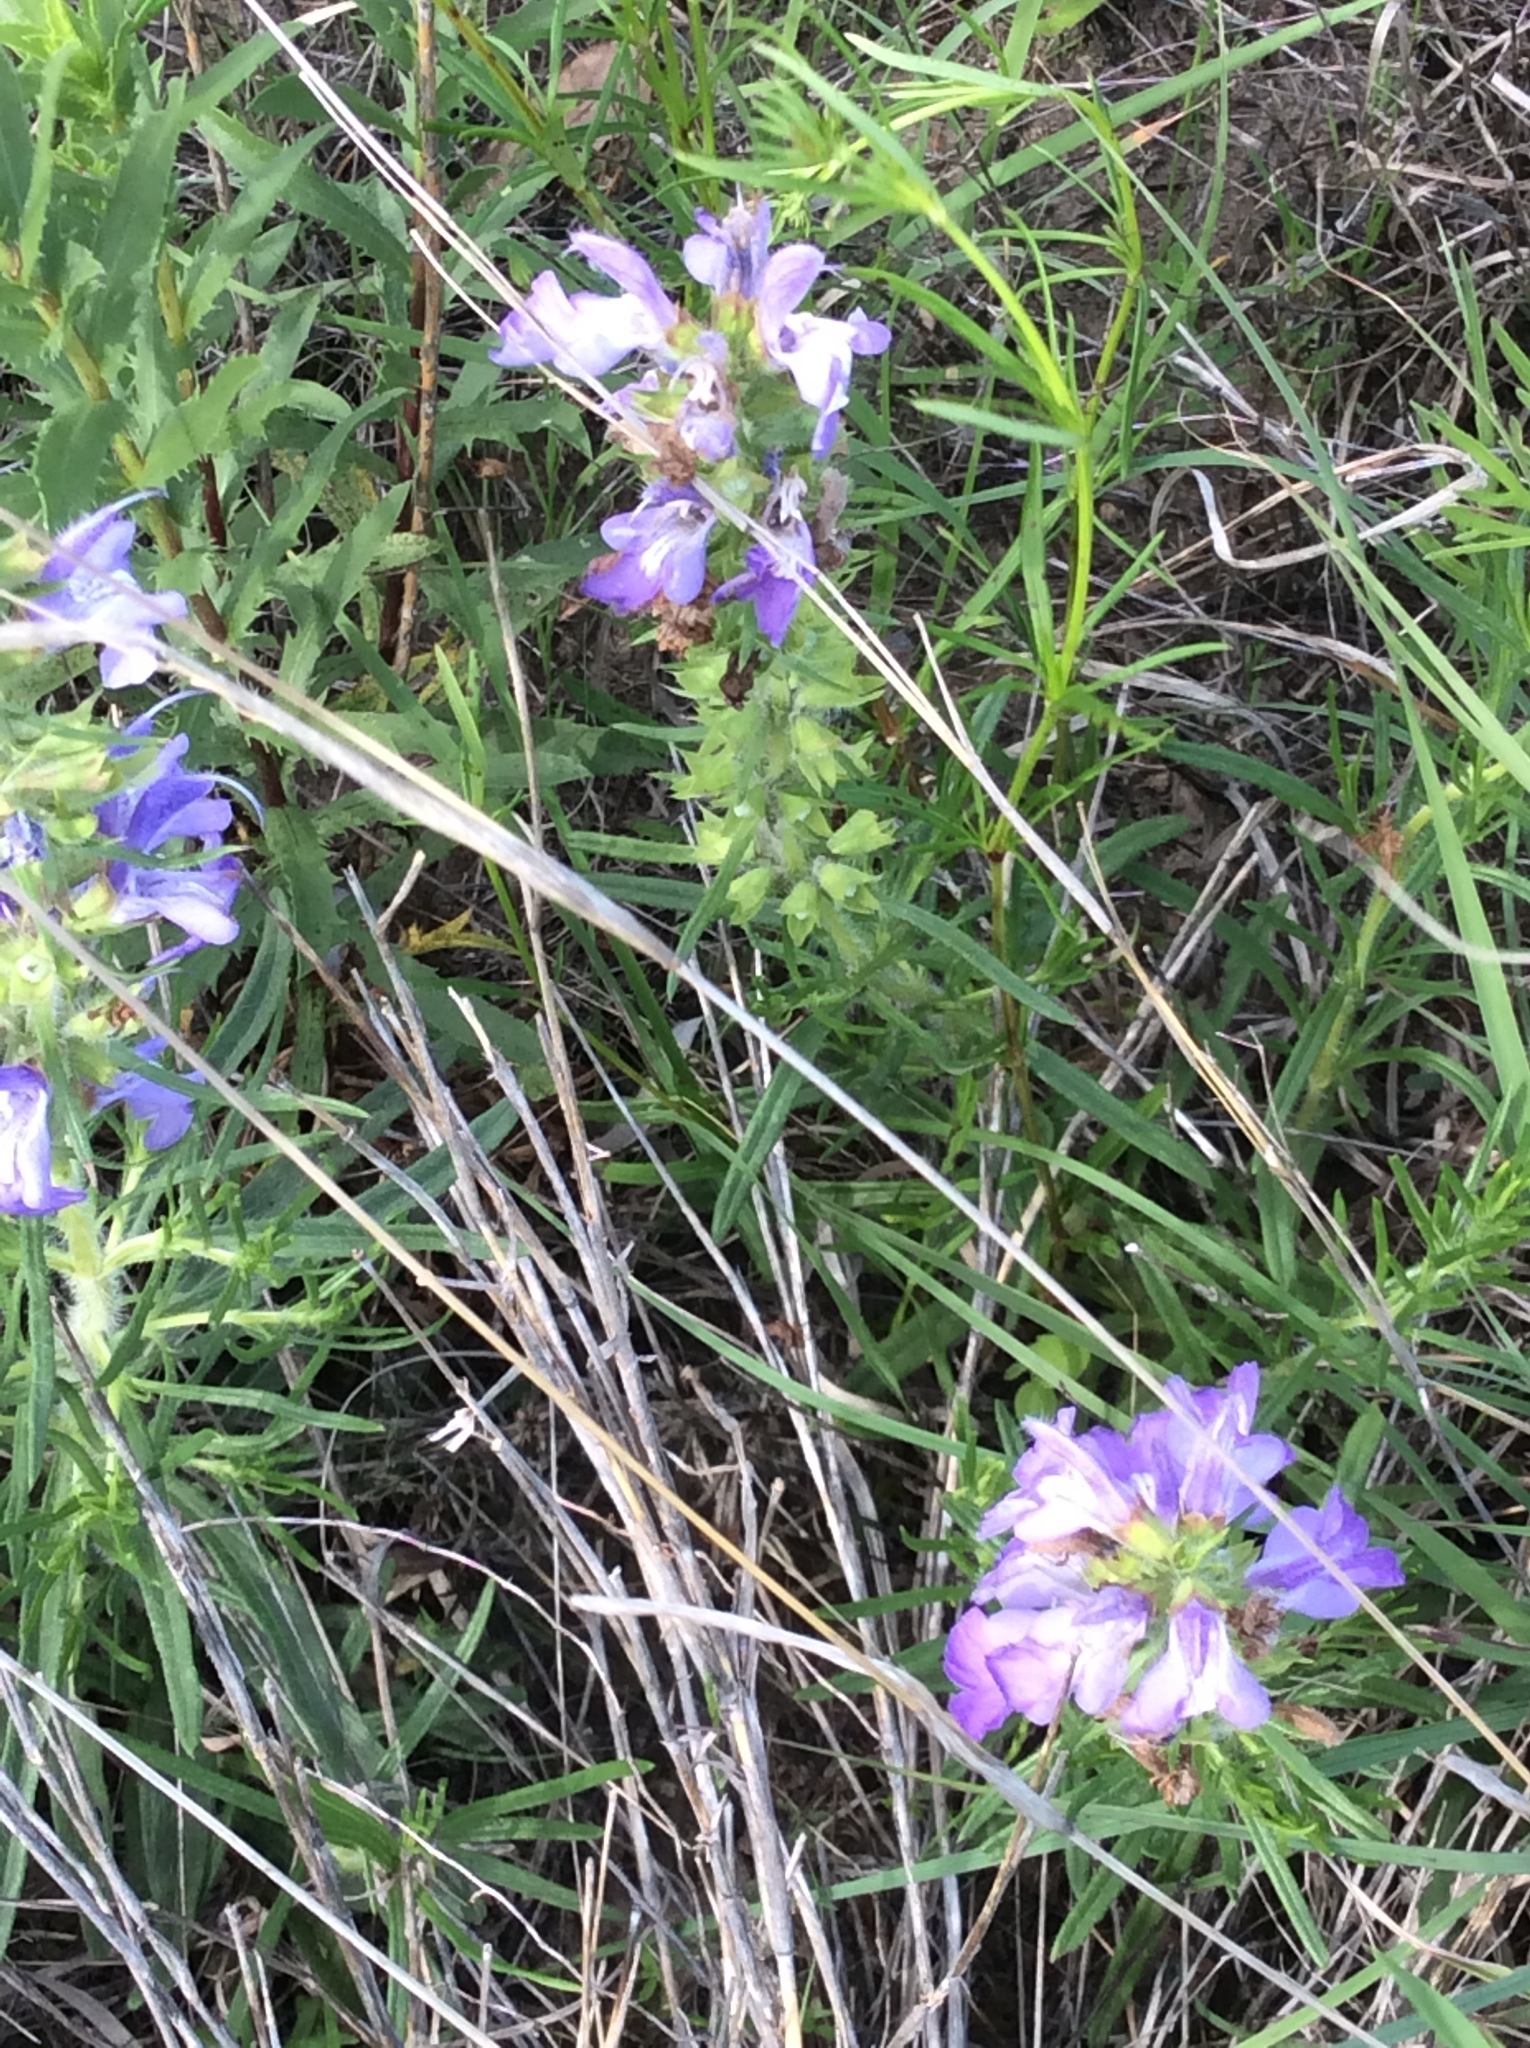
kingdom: Plantae
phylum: Tracheophyta
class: Magnoliopsida
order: Lamiales
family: Lamiaceae
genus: Salvia
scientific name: Salvia engelmannii
